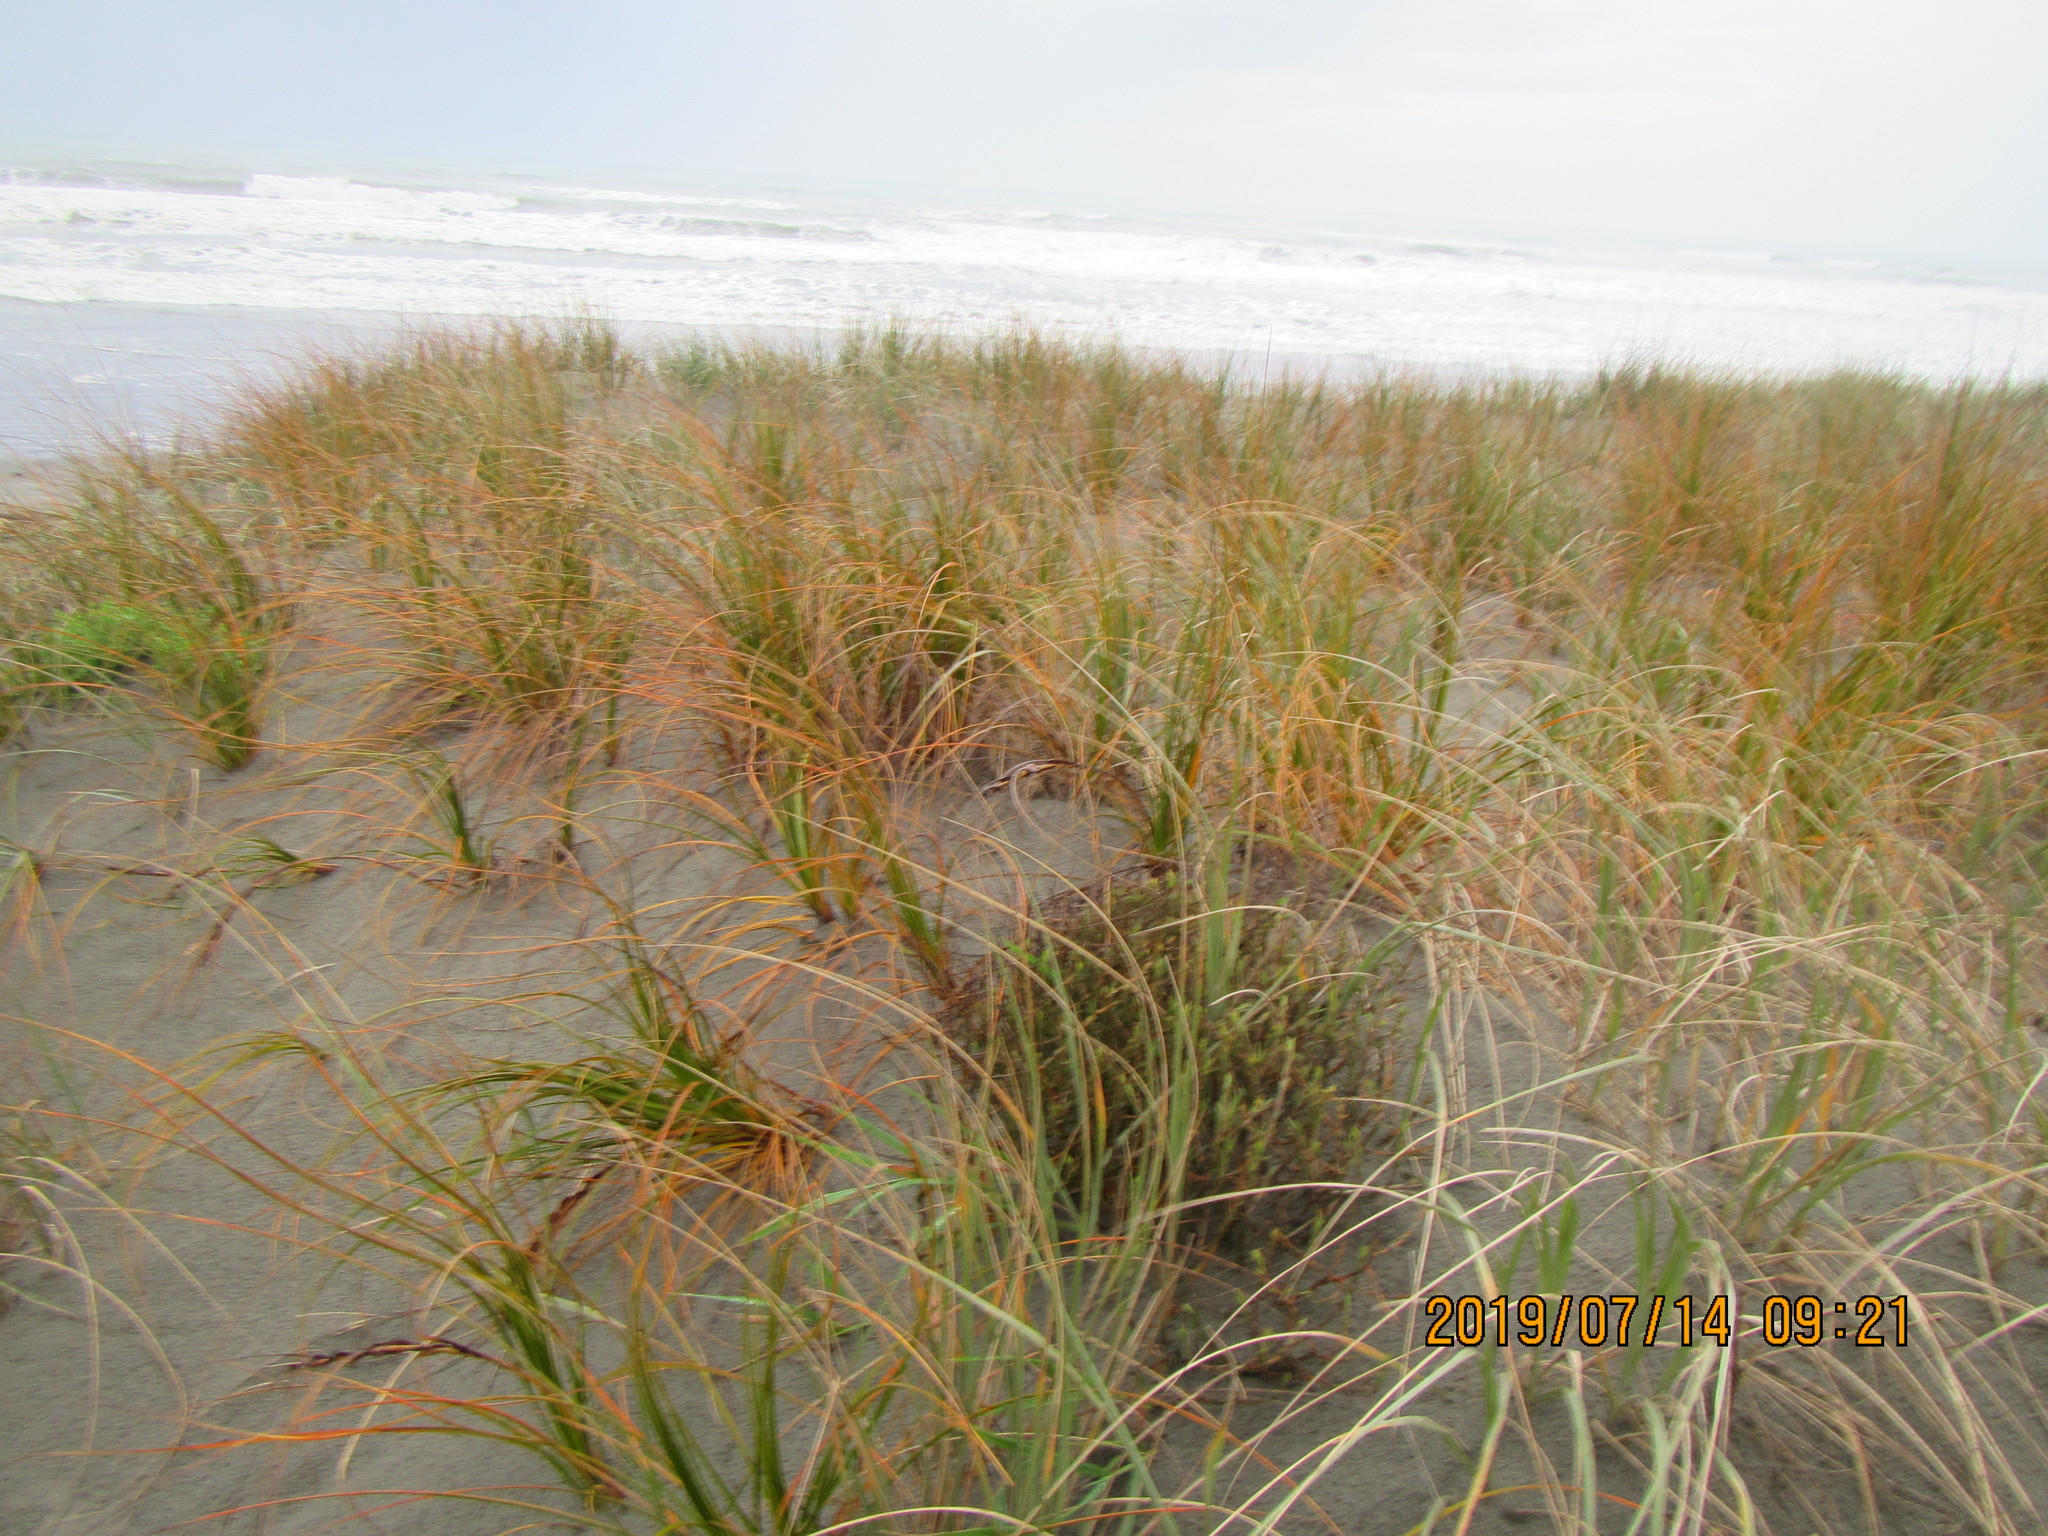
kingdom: Plantae
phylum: Tracheophyta
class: Liliopsida
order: Poales
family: Cyperaceae
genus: Ficinia
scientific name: Ficinia spiralis
